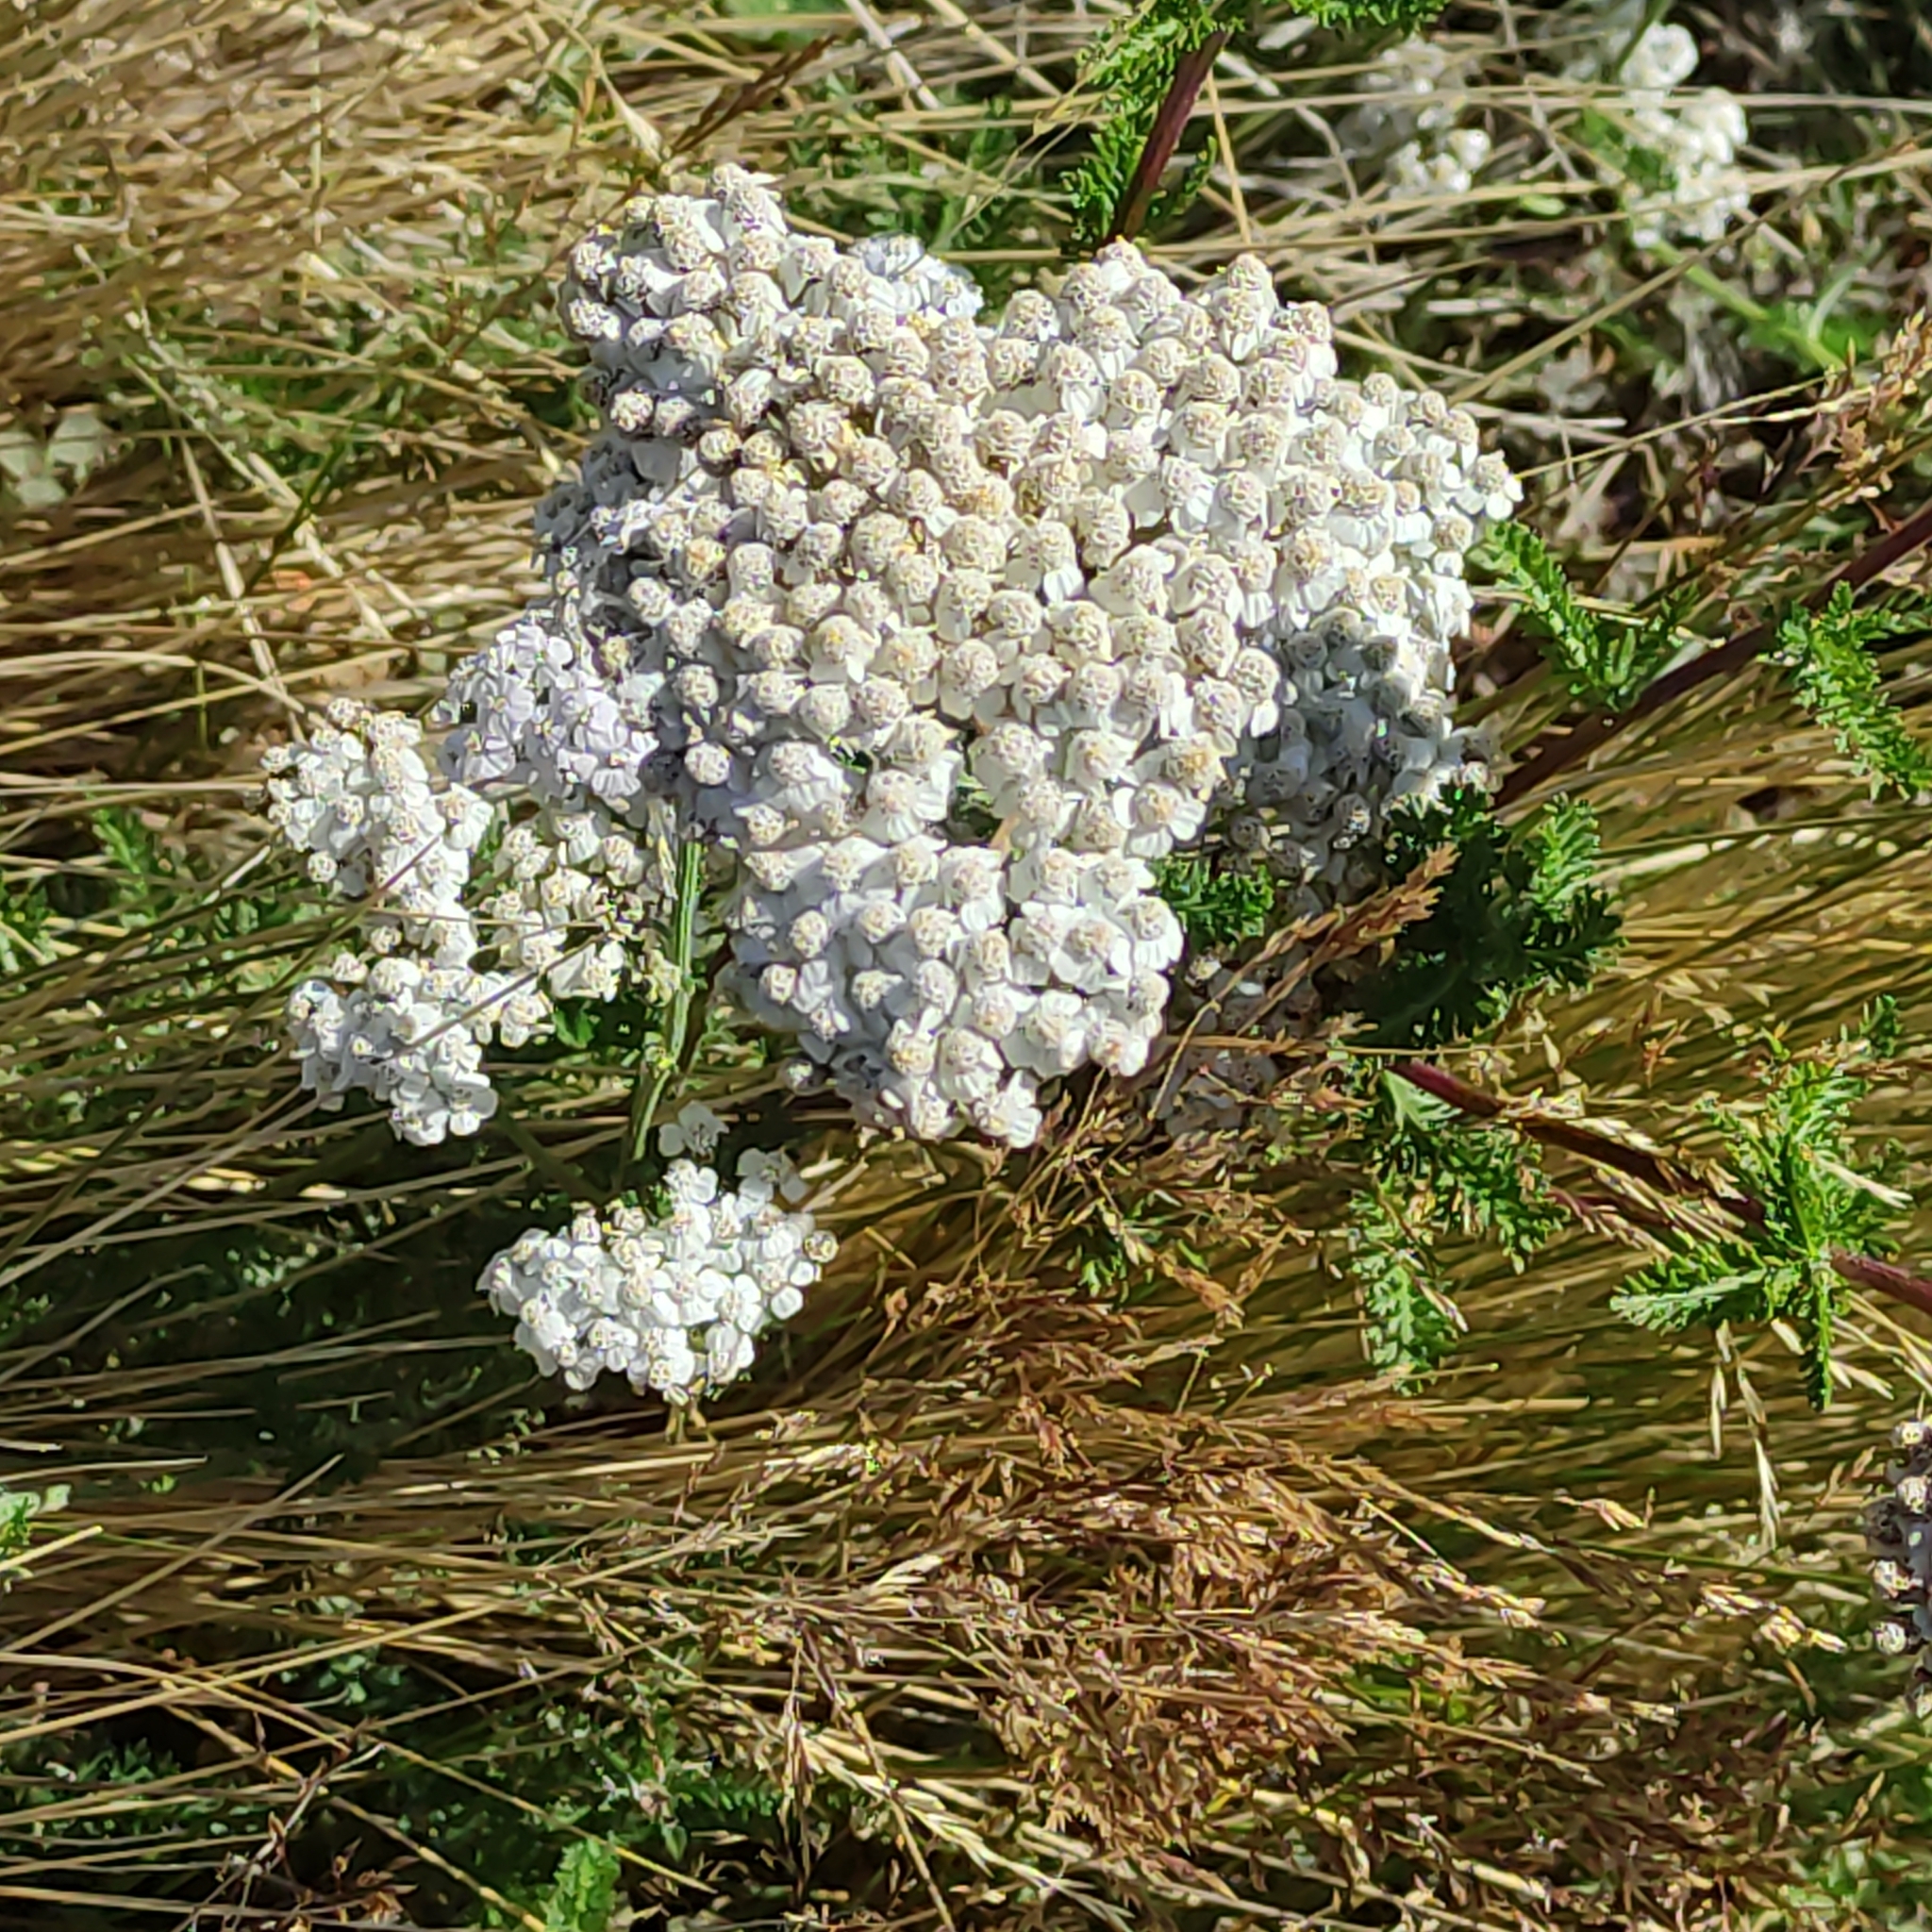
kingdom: Plantae
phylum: Tracheophyta
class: Magnoliopsida
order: Asterales
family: Asteraceae
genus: Achillea
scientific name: Achillea millefolium
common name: Yarrow
